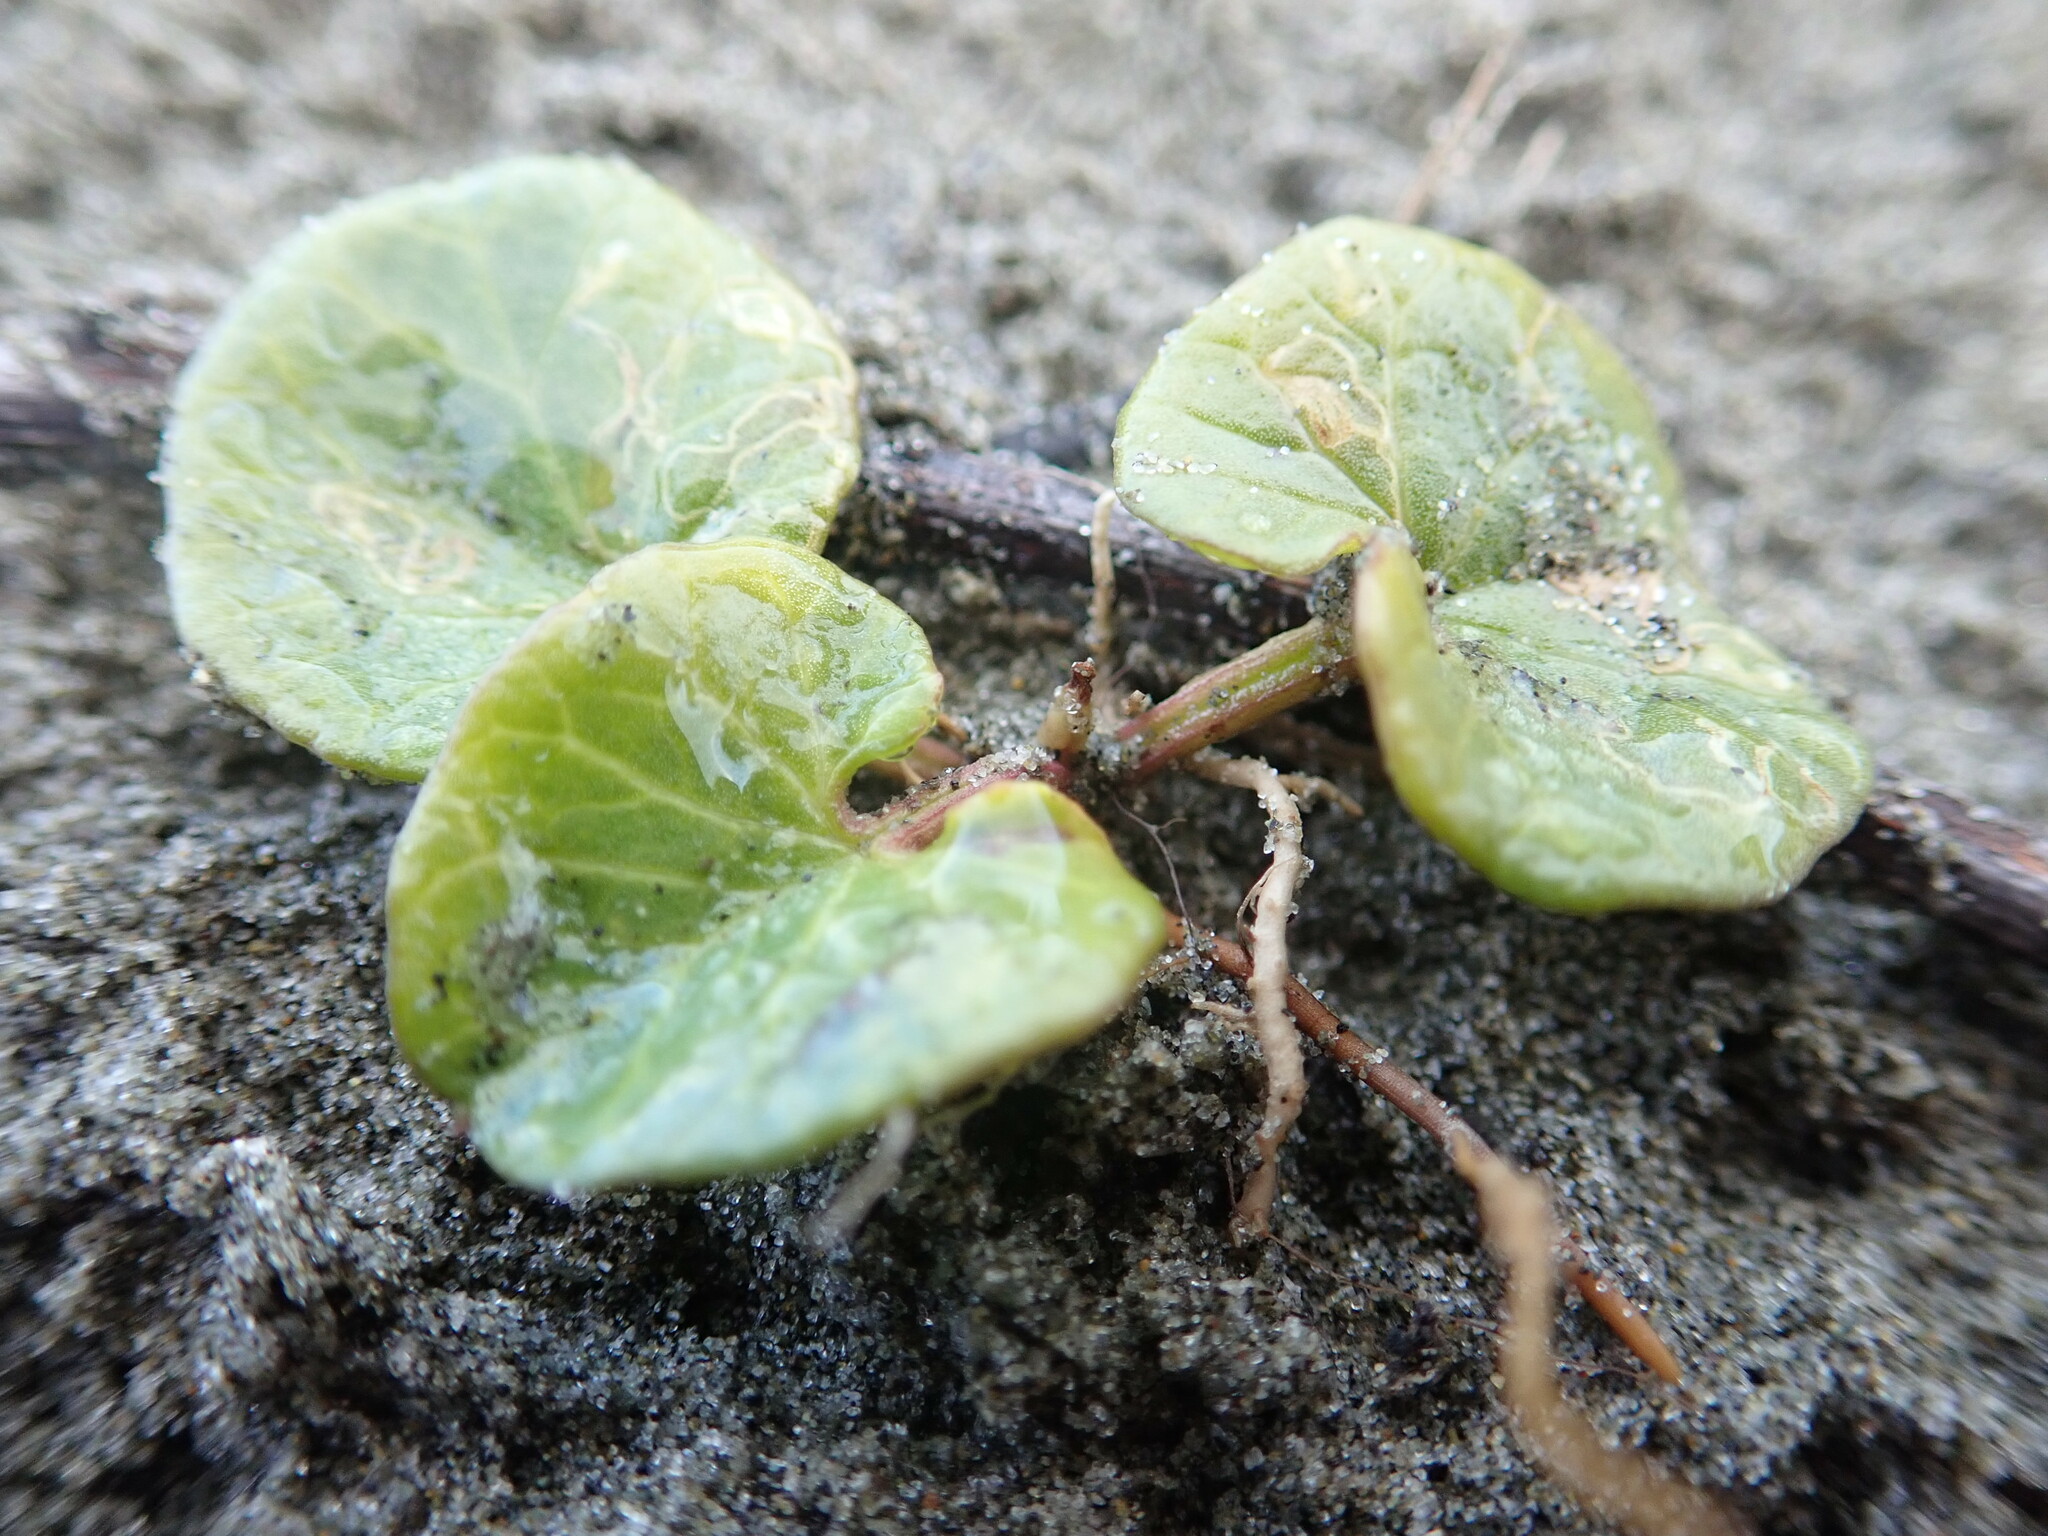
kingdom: Plantae
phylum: Tracheophyta
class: Magnoliopsida
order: Solanales
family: Convolvulaceae
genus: Calystegia
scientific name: Calystegia soldanella
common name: Sea bindweed
